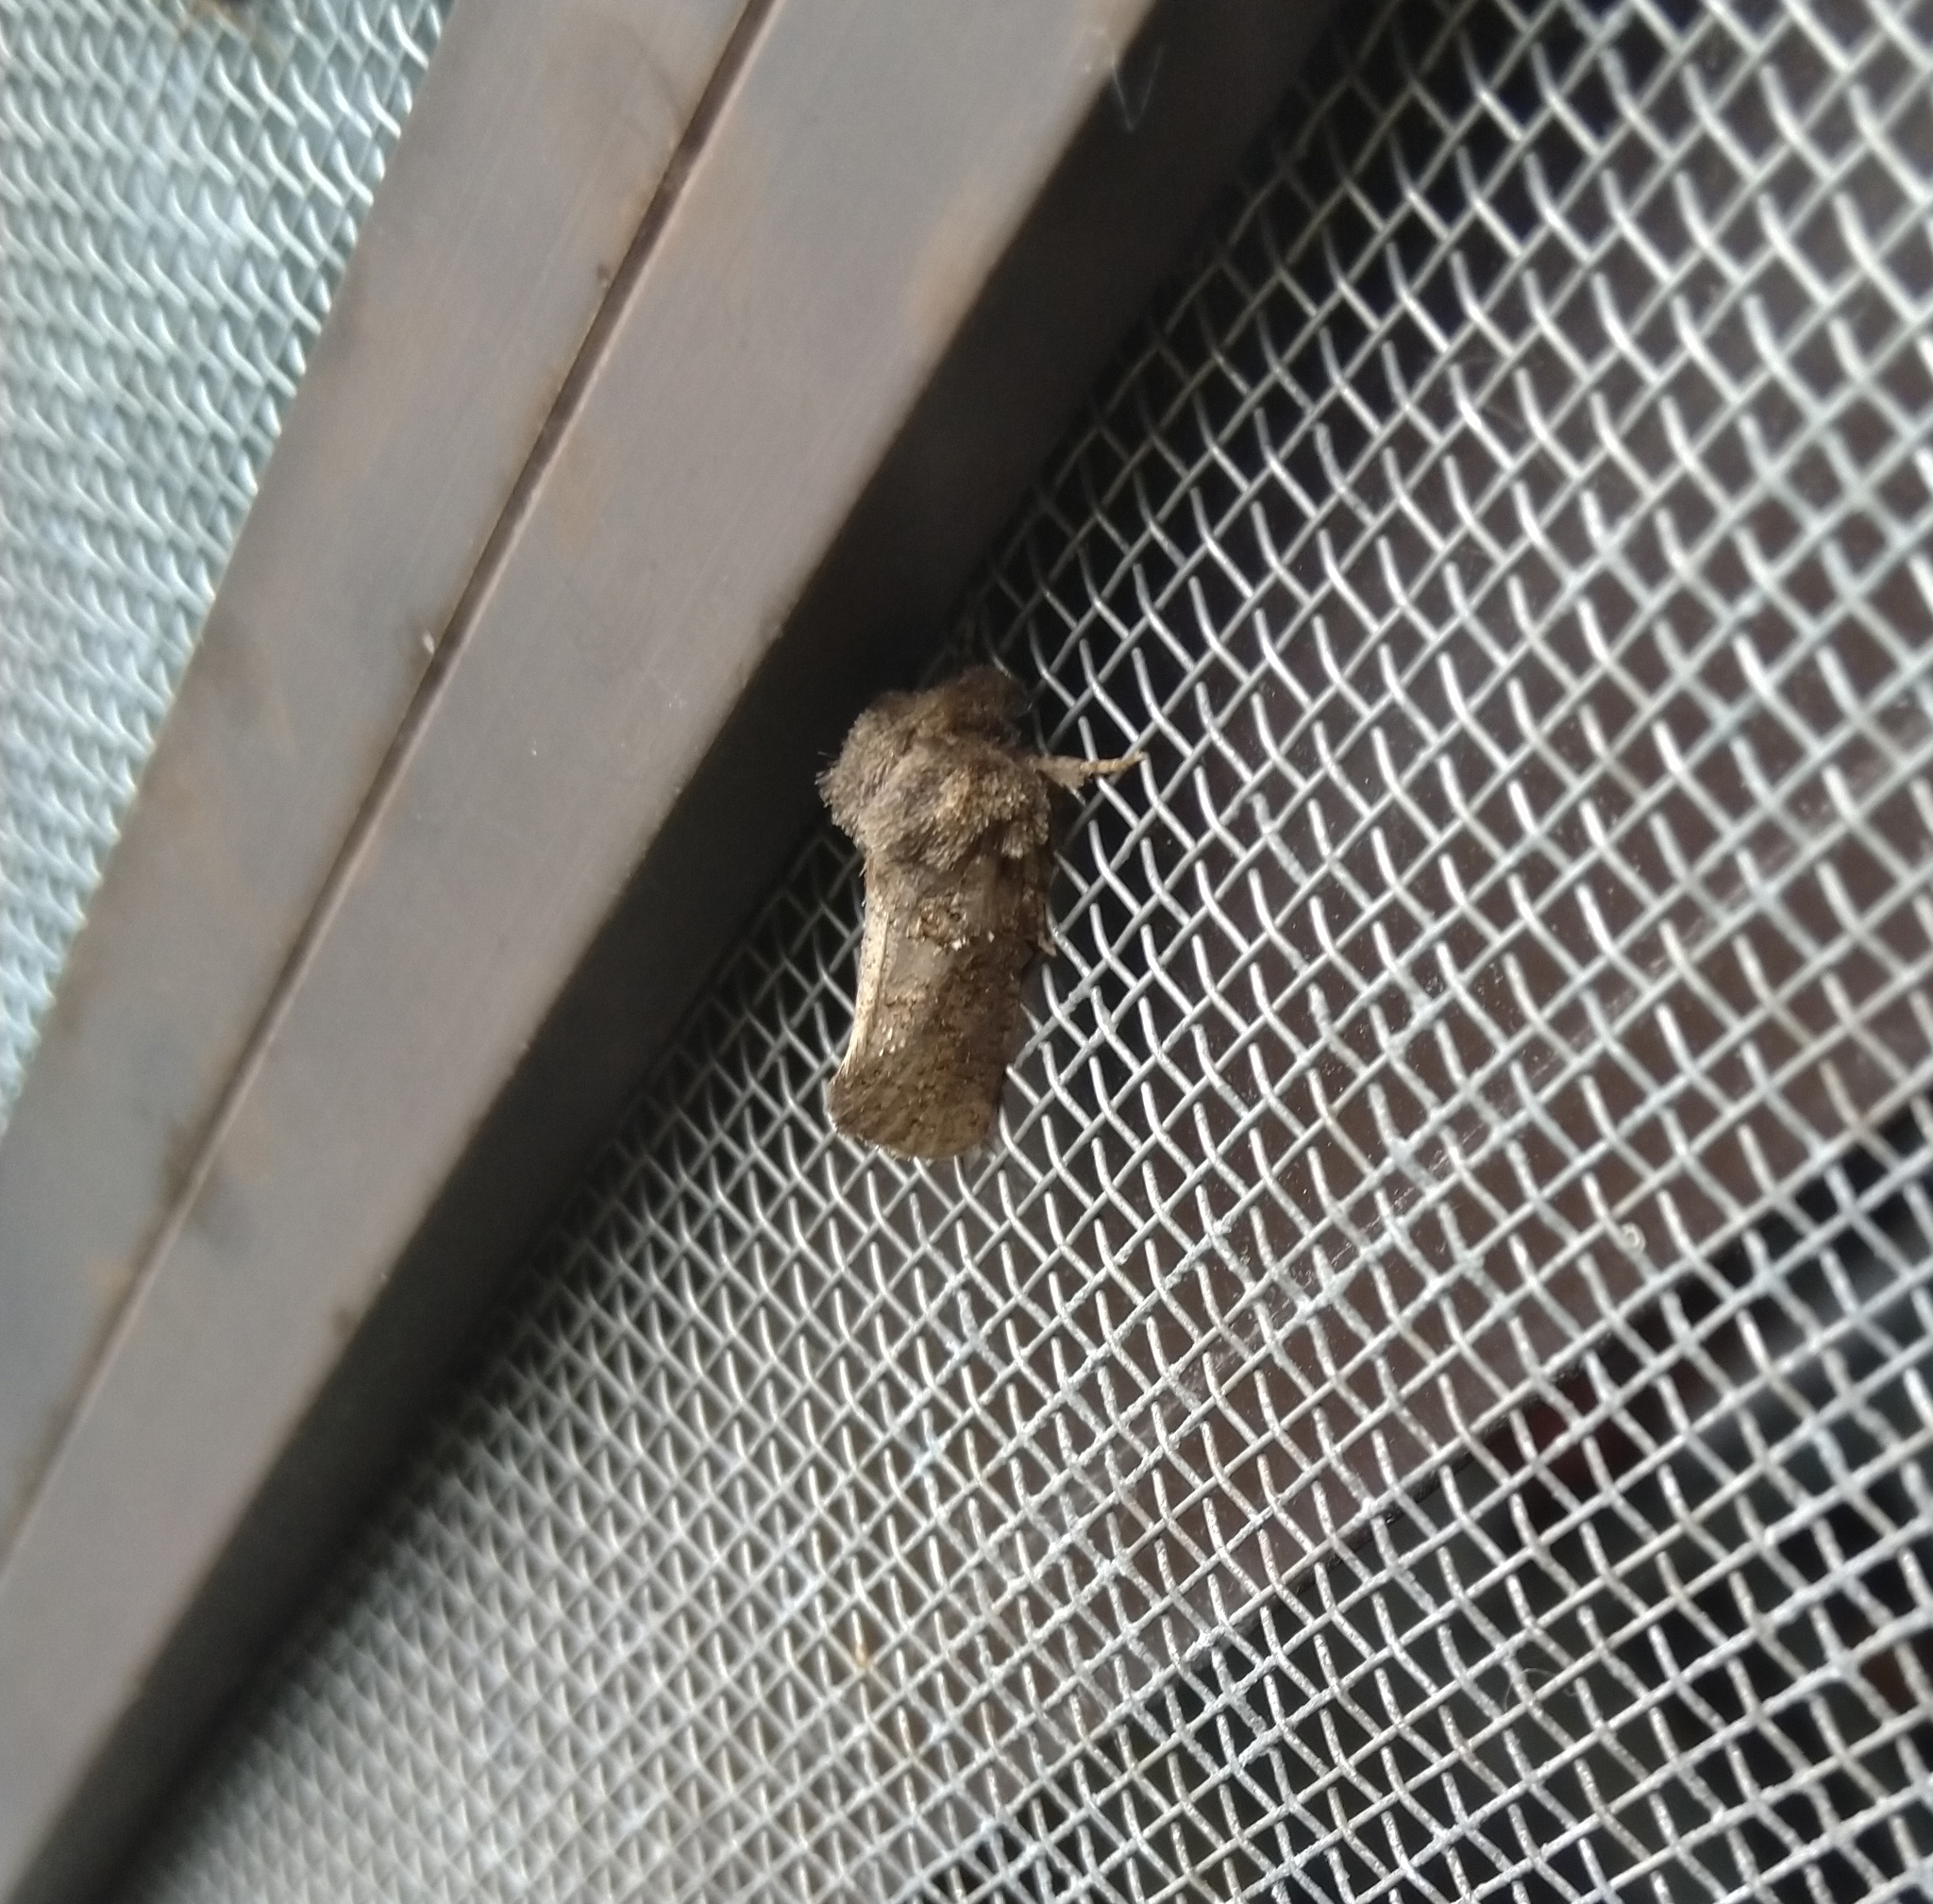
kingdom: Animalia
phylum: Arthropoda
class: Insecta
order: Lepidoptera
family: Tineidae
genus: Acrolophus
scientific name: Acrolophus arcanella
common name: Arcane grass tubeworm moth
